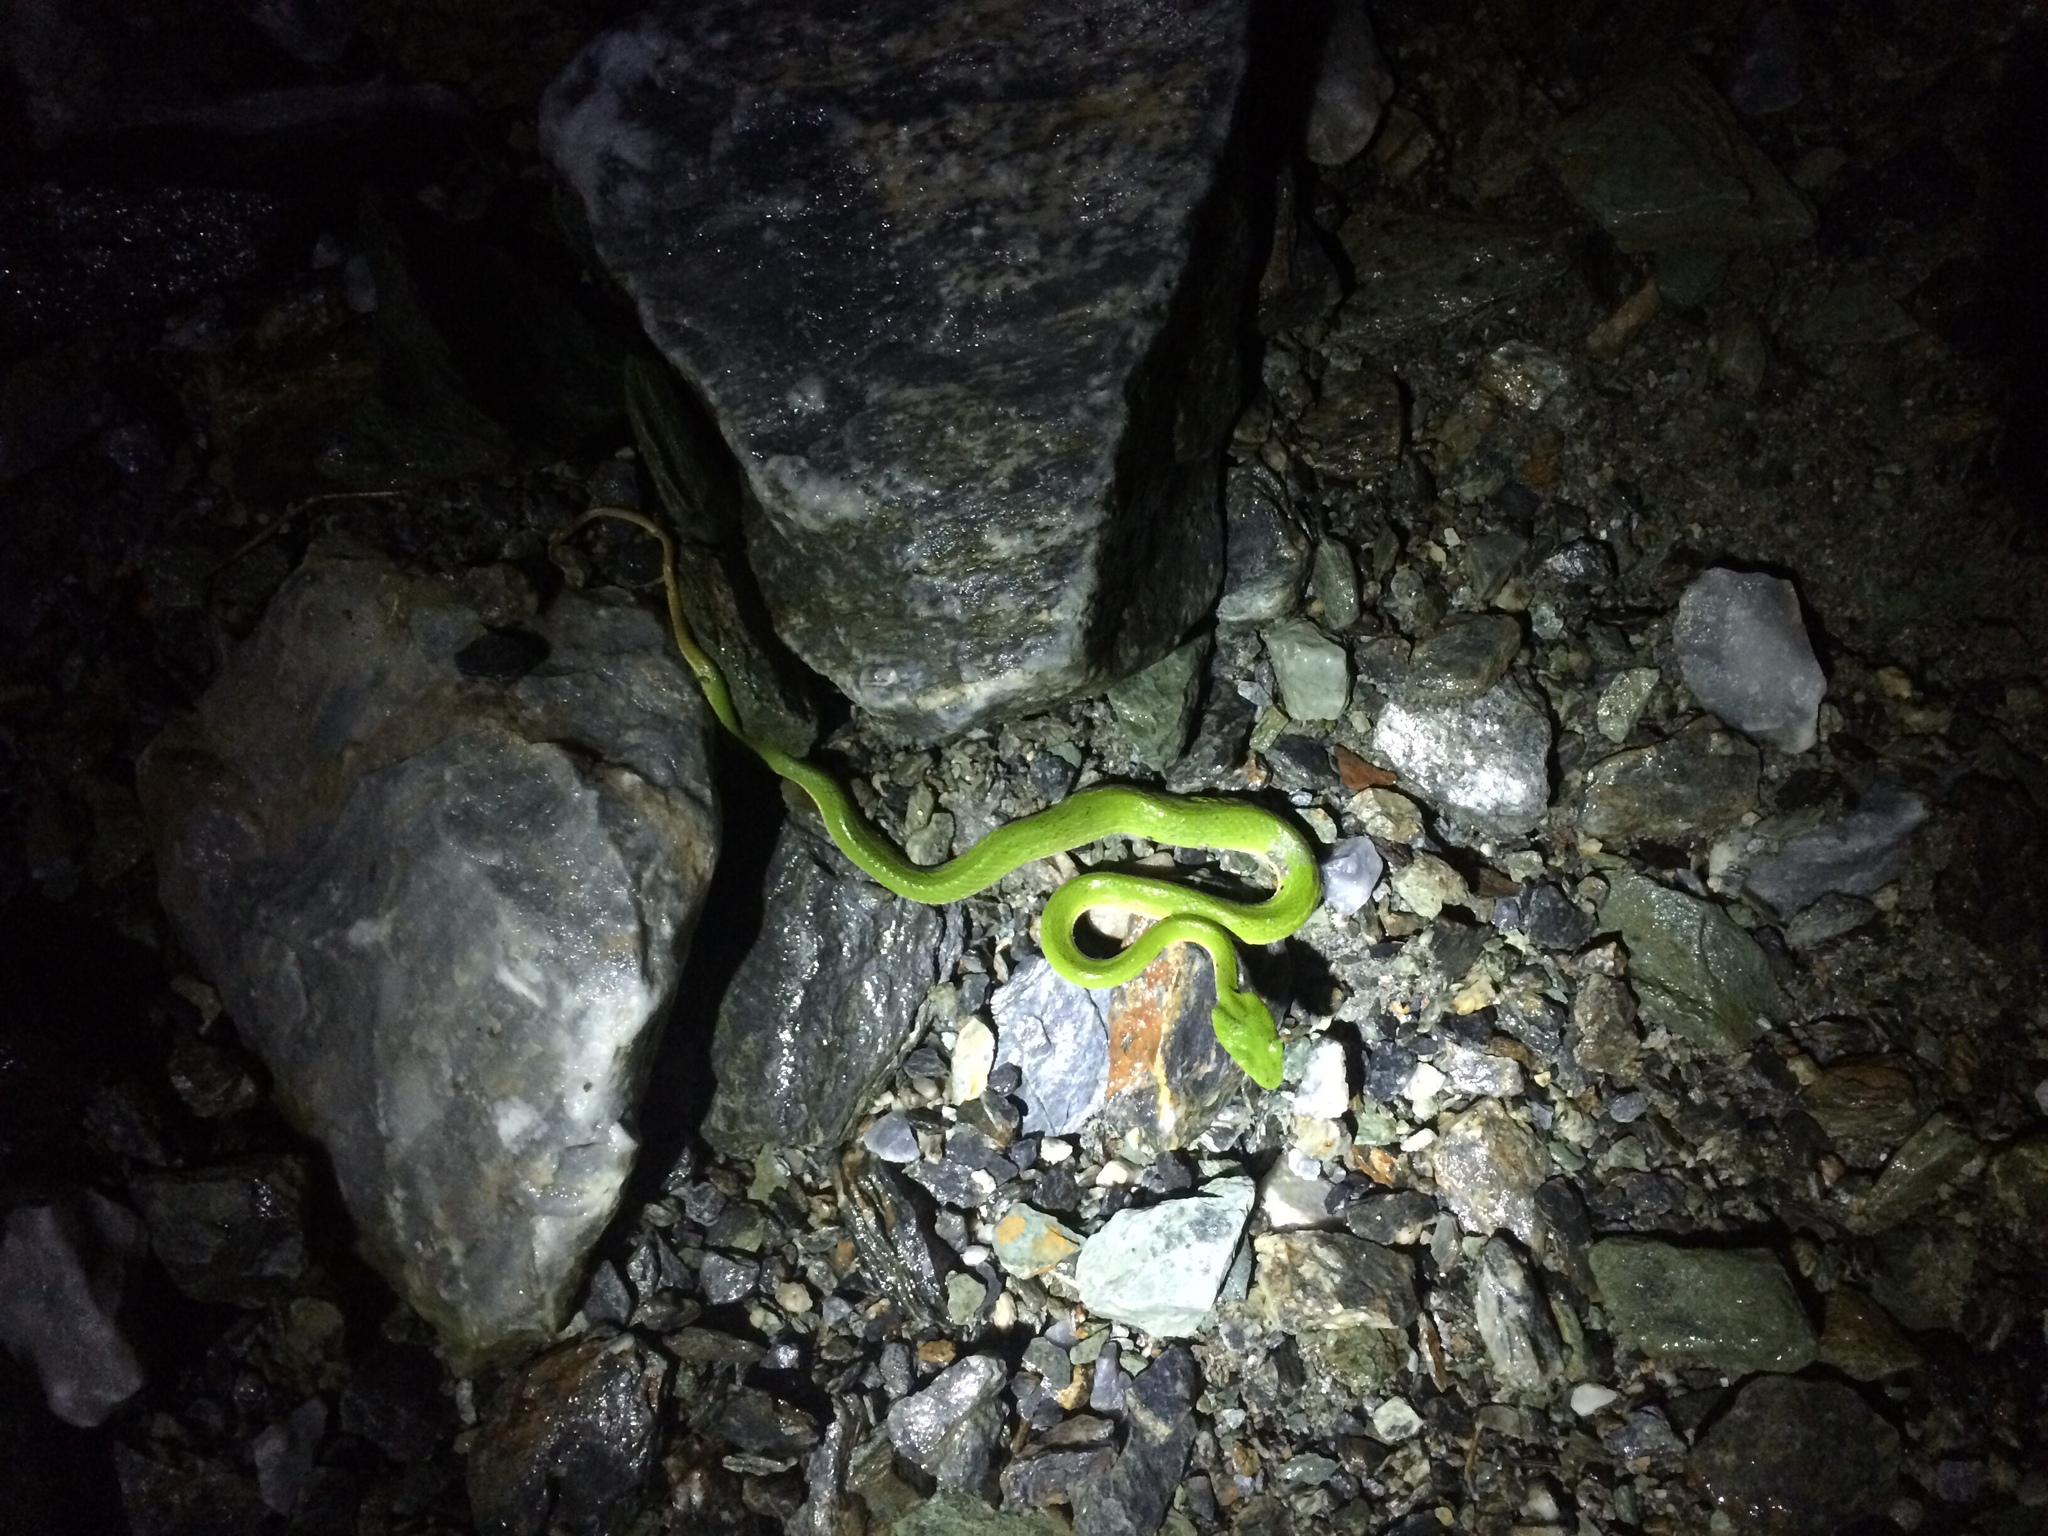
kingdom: Animalia
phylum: Chordata
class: Squamata
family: Viperidae
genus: Trimeresurus
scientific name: Trimeresurus stejnegeri
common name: Chen’s bamboo pit viper
